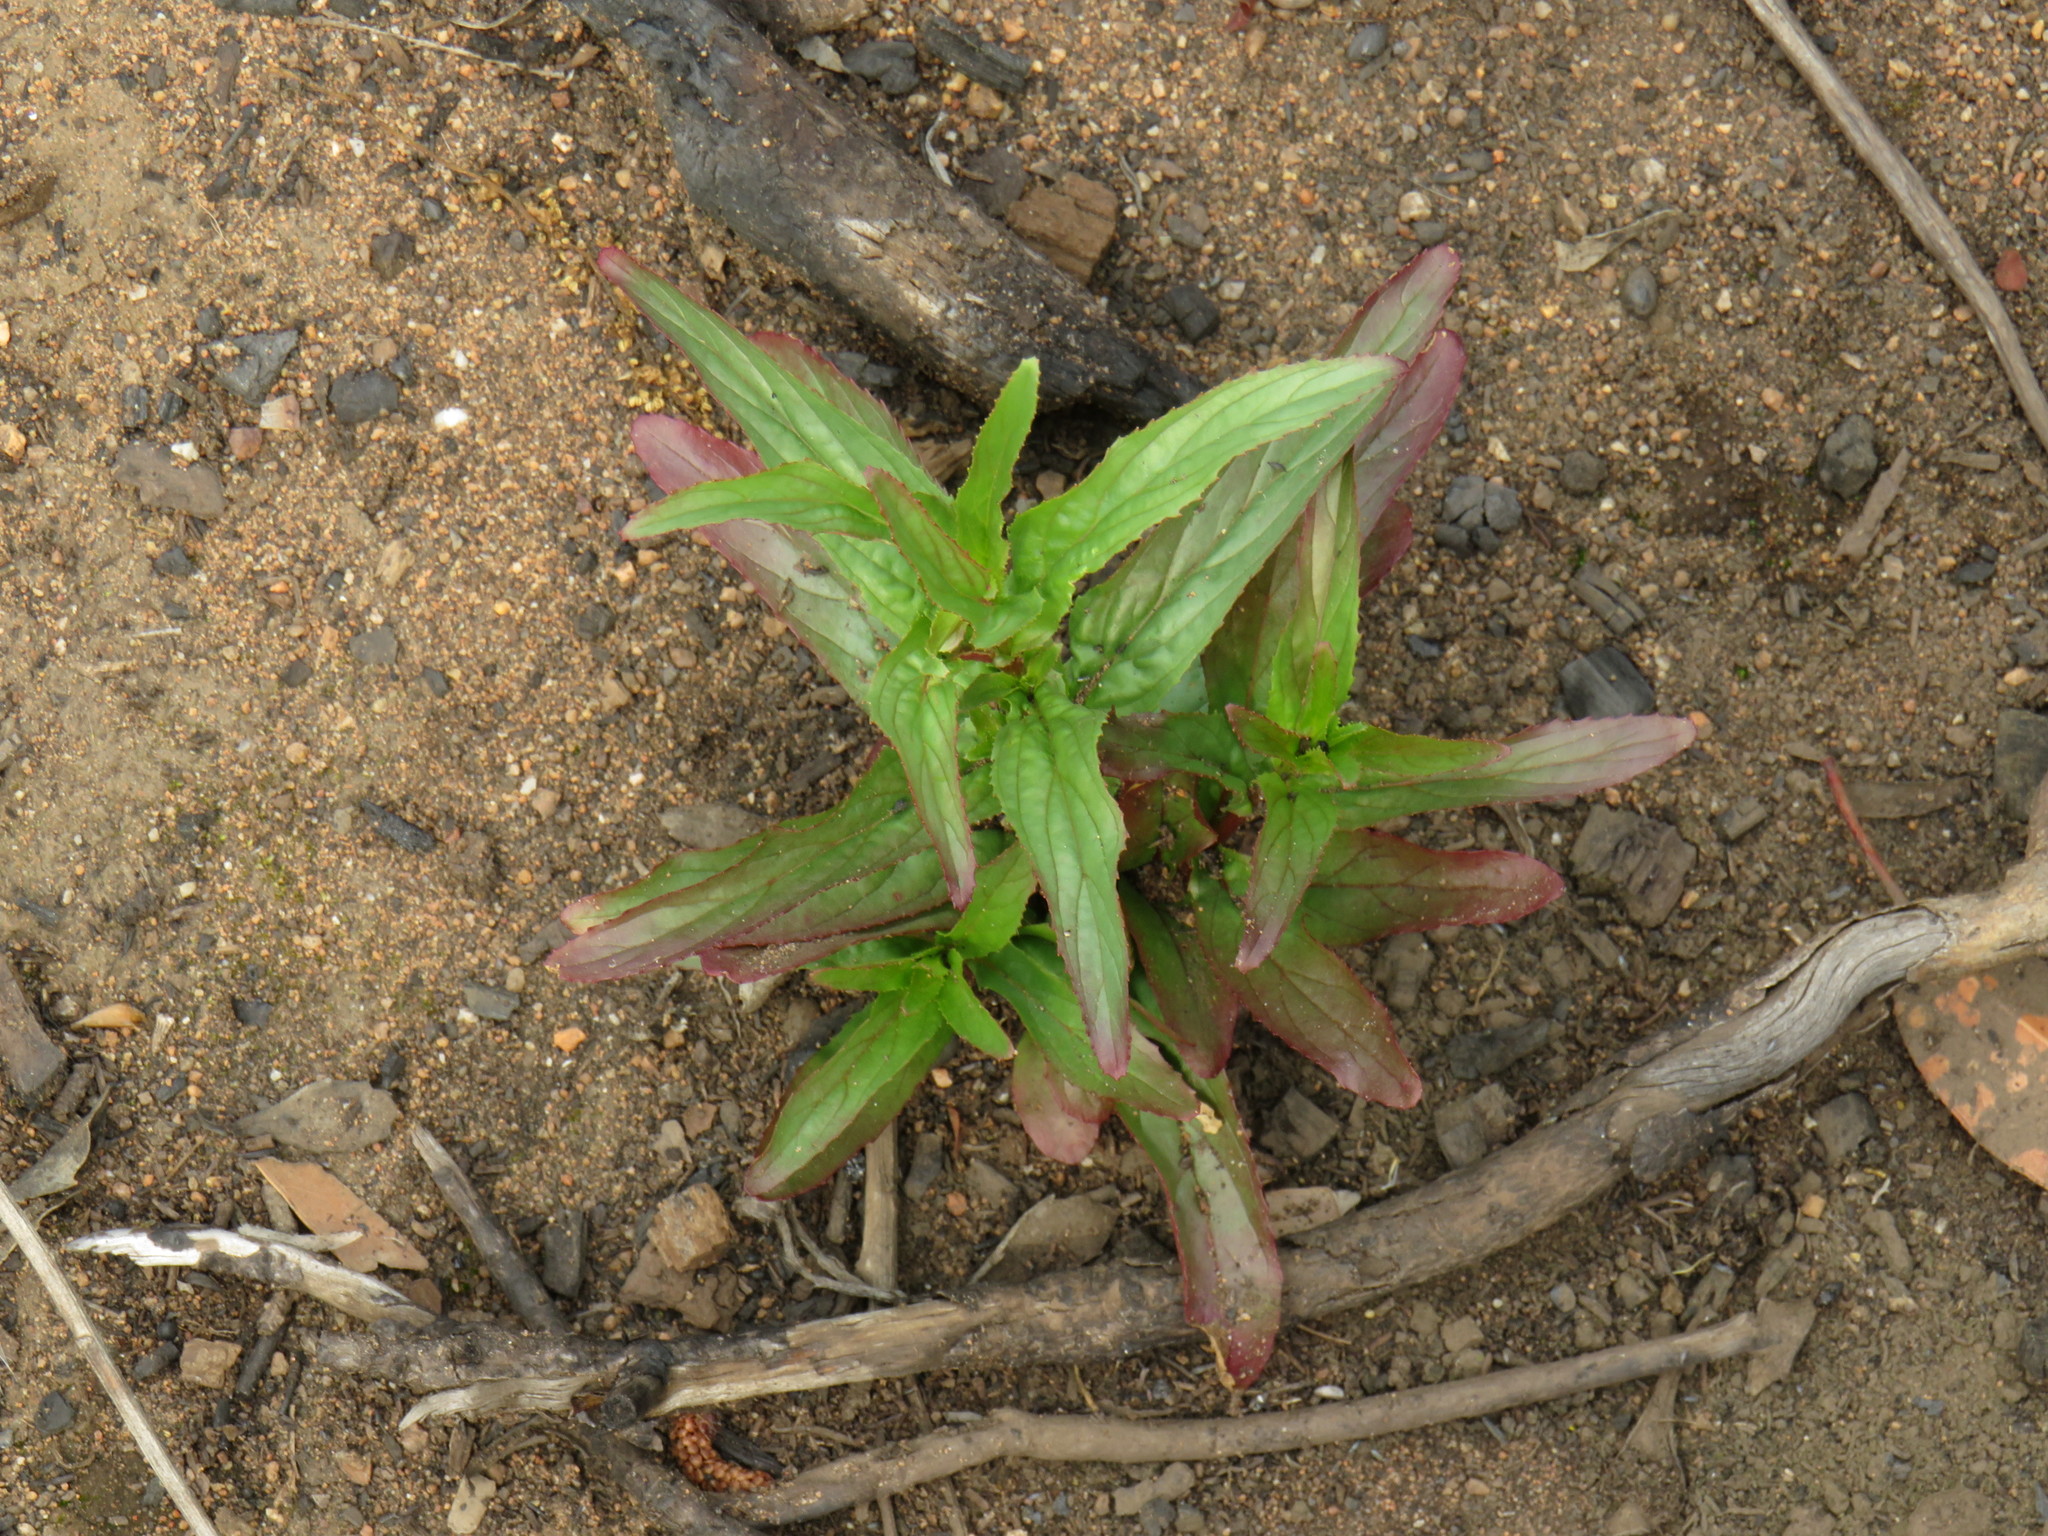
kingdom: Plantae
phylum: Tracheophyta
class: Magnoliopsida
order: Myrtales
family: Onagraceae
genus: Epilobium
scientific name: Epilobium tetragonum
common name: Square-stemmed willowherb
